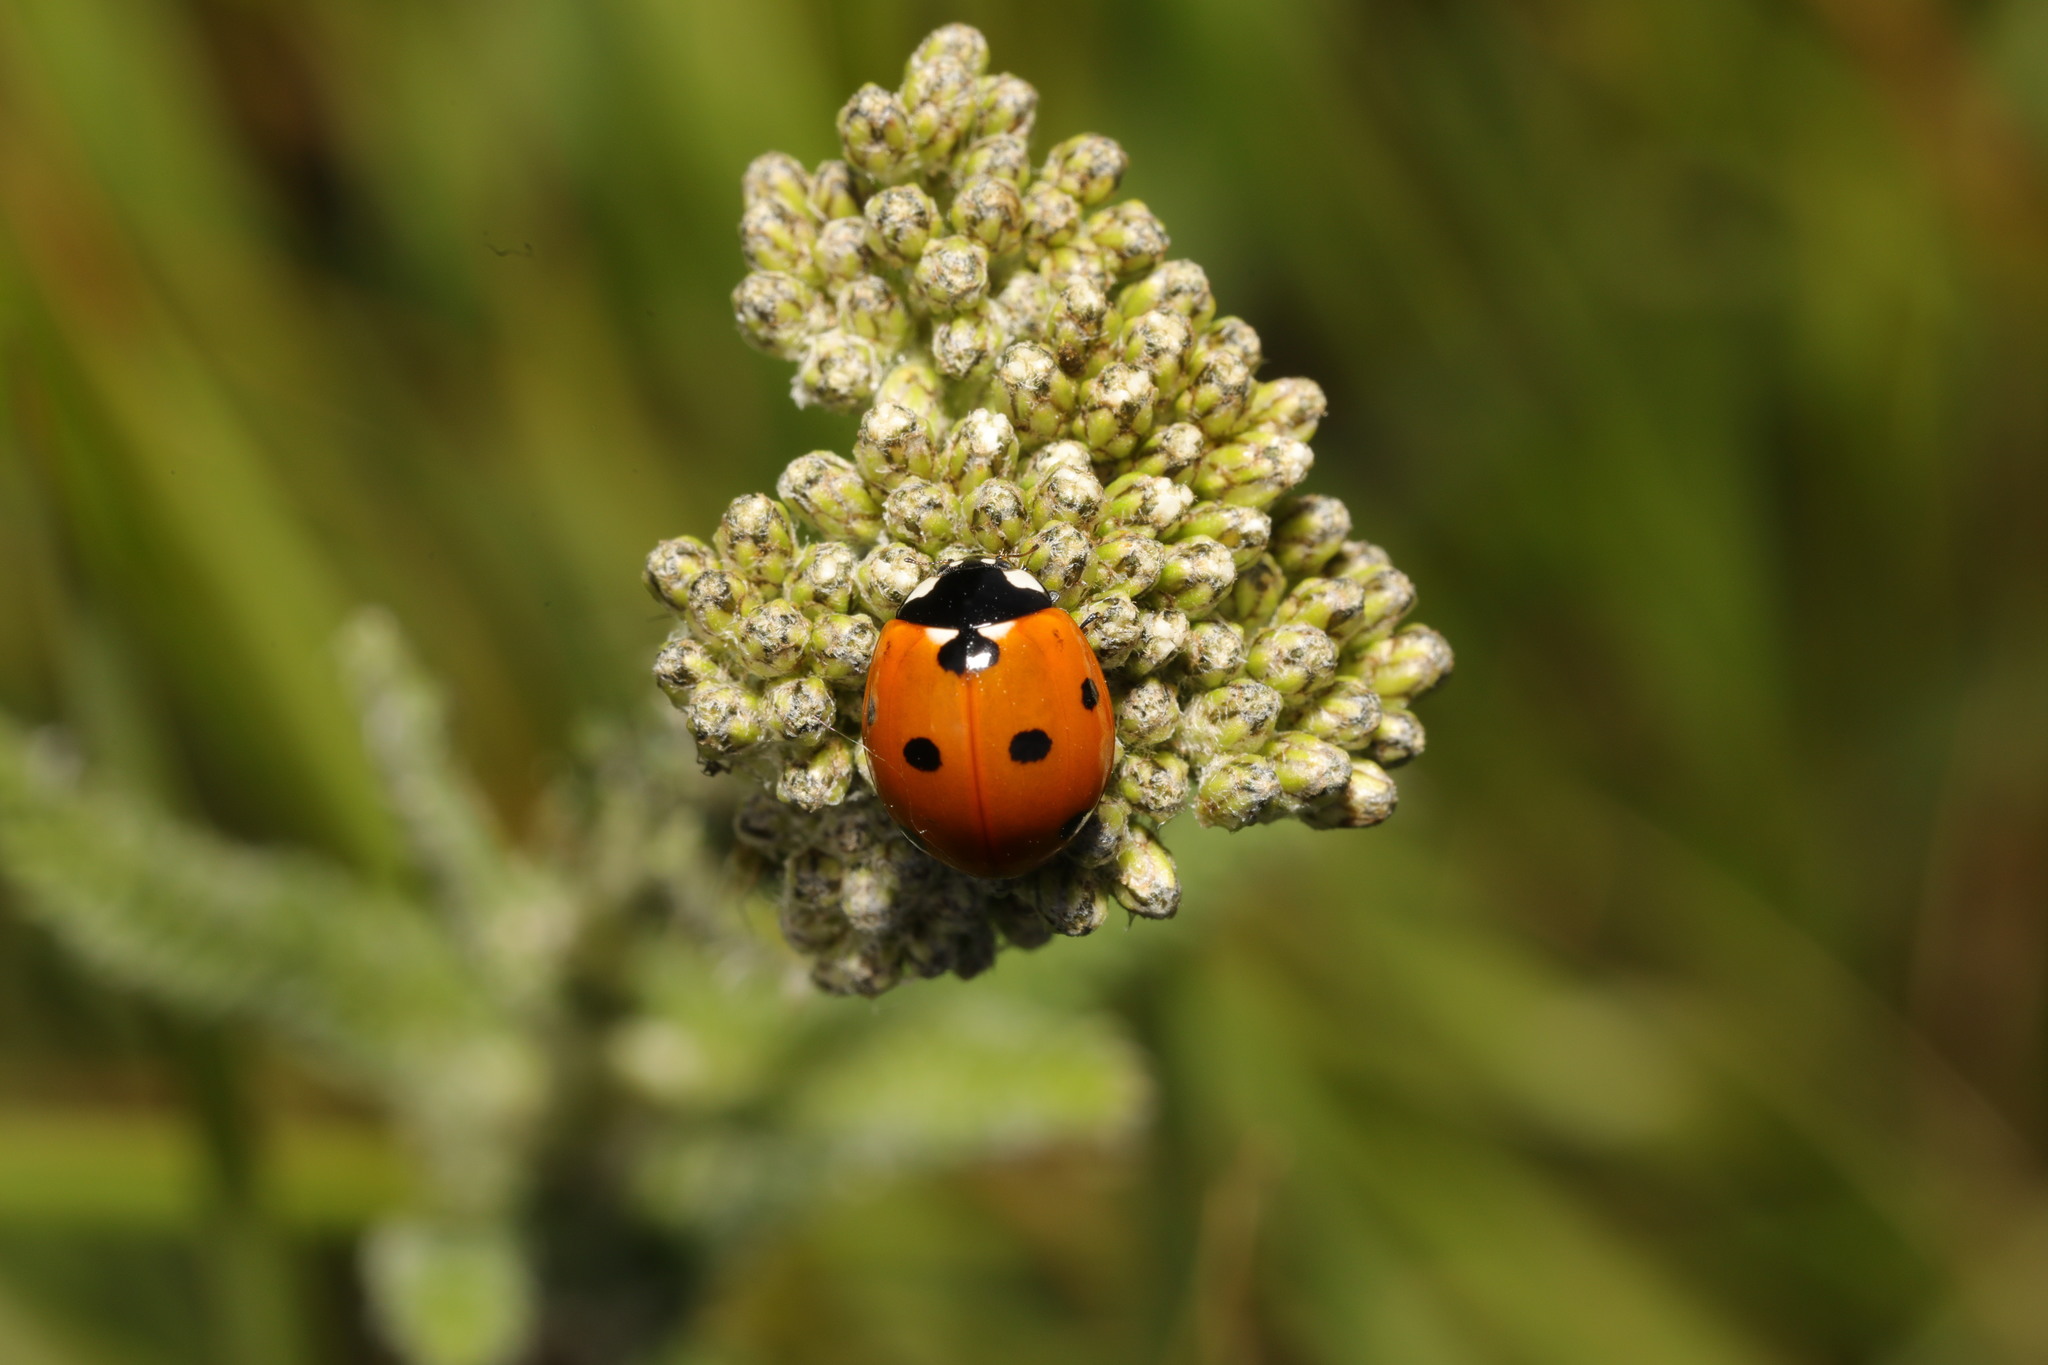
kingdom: Animalia
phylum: Arthropoda
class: Insecta
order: Coleoptera
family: Coccinellidae
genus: Coccinella
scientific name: Coccinella septempunctata
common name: Sevenspotted lady beetle
